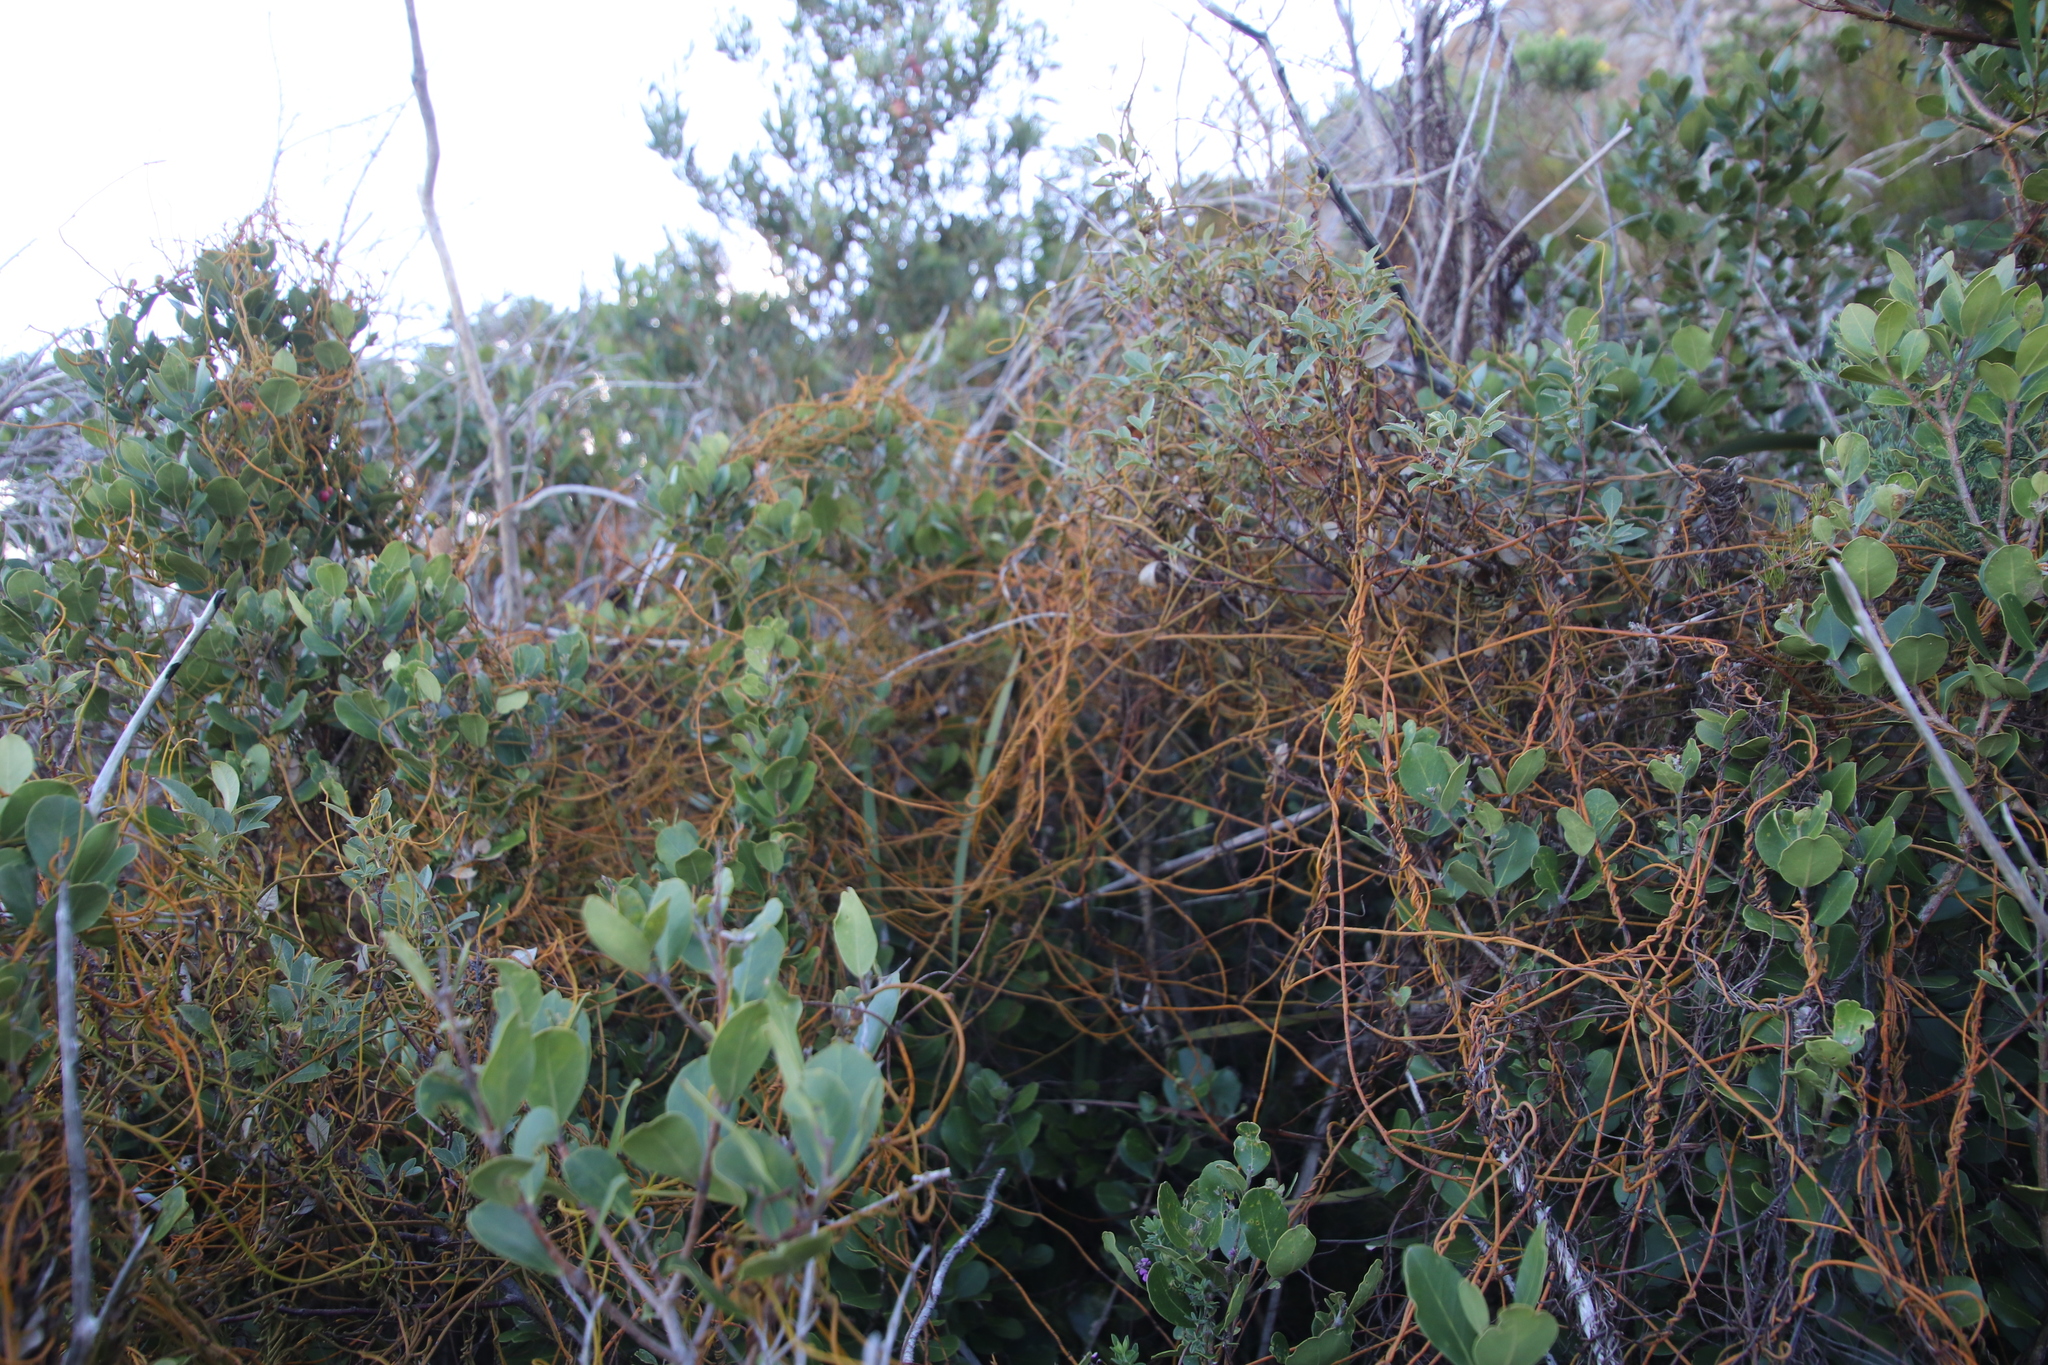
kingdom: Plantae
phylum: Tracheophyta
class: Magnoliopsida
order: Laurales
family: Lauraceae
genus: Cassytha
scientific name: Cassytha ciliolata
